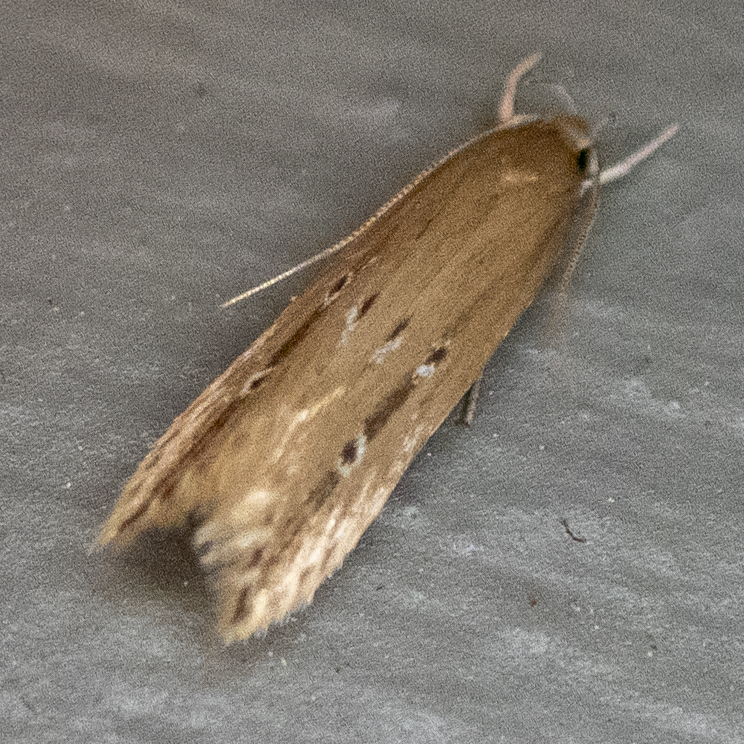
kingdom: Animalia
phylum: Arthropoda
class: Insecta
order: Lepidoptera
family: Cosmopterigidae
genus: Limnaecia
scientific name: Limnaecia phragmitella
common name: Bulrush cosmet
